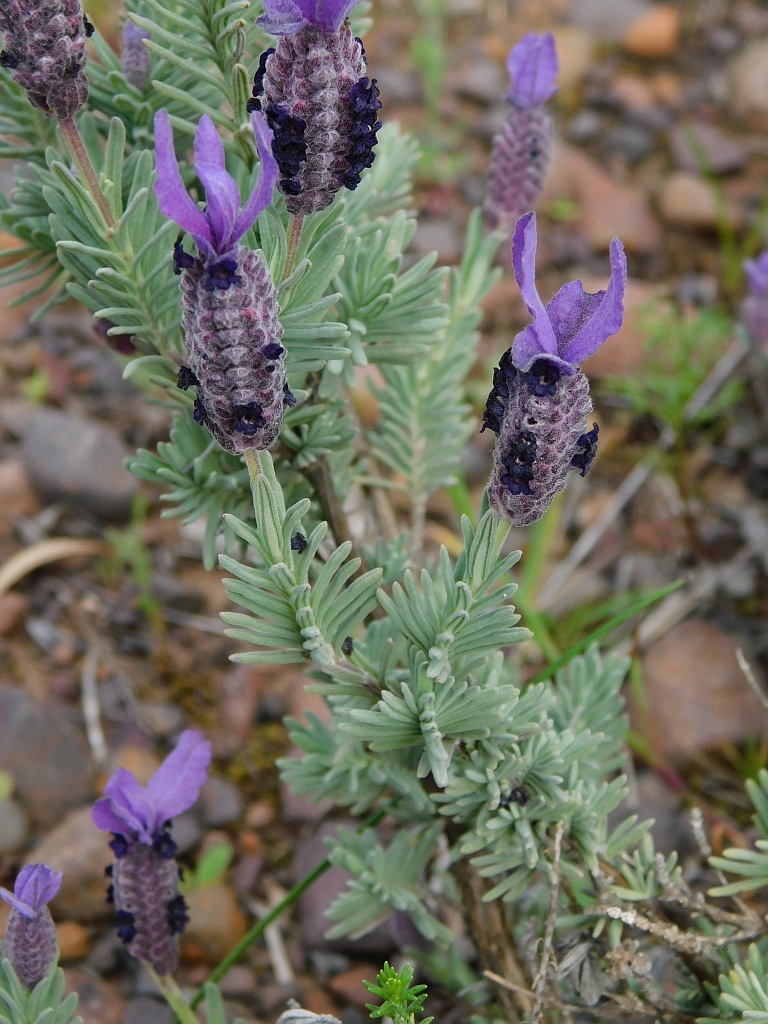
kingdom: Plantae
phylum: Tracheophyta
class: Magnoliopsida
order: Lamiales
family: Lamiaceae
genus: Lavandula
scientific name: Lavandula stoechas
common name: French lavender
